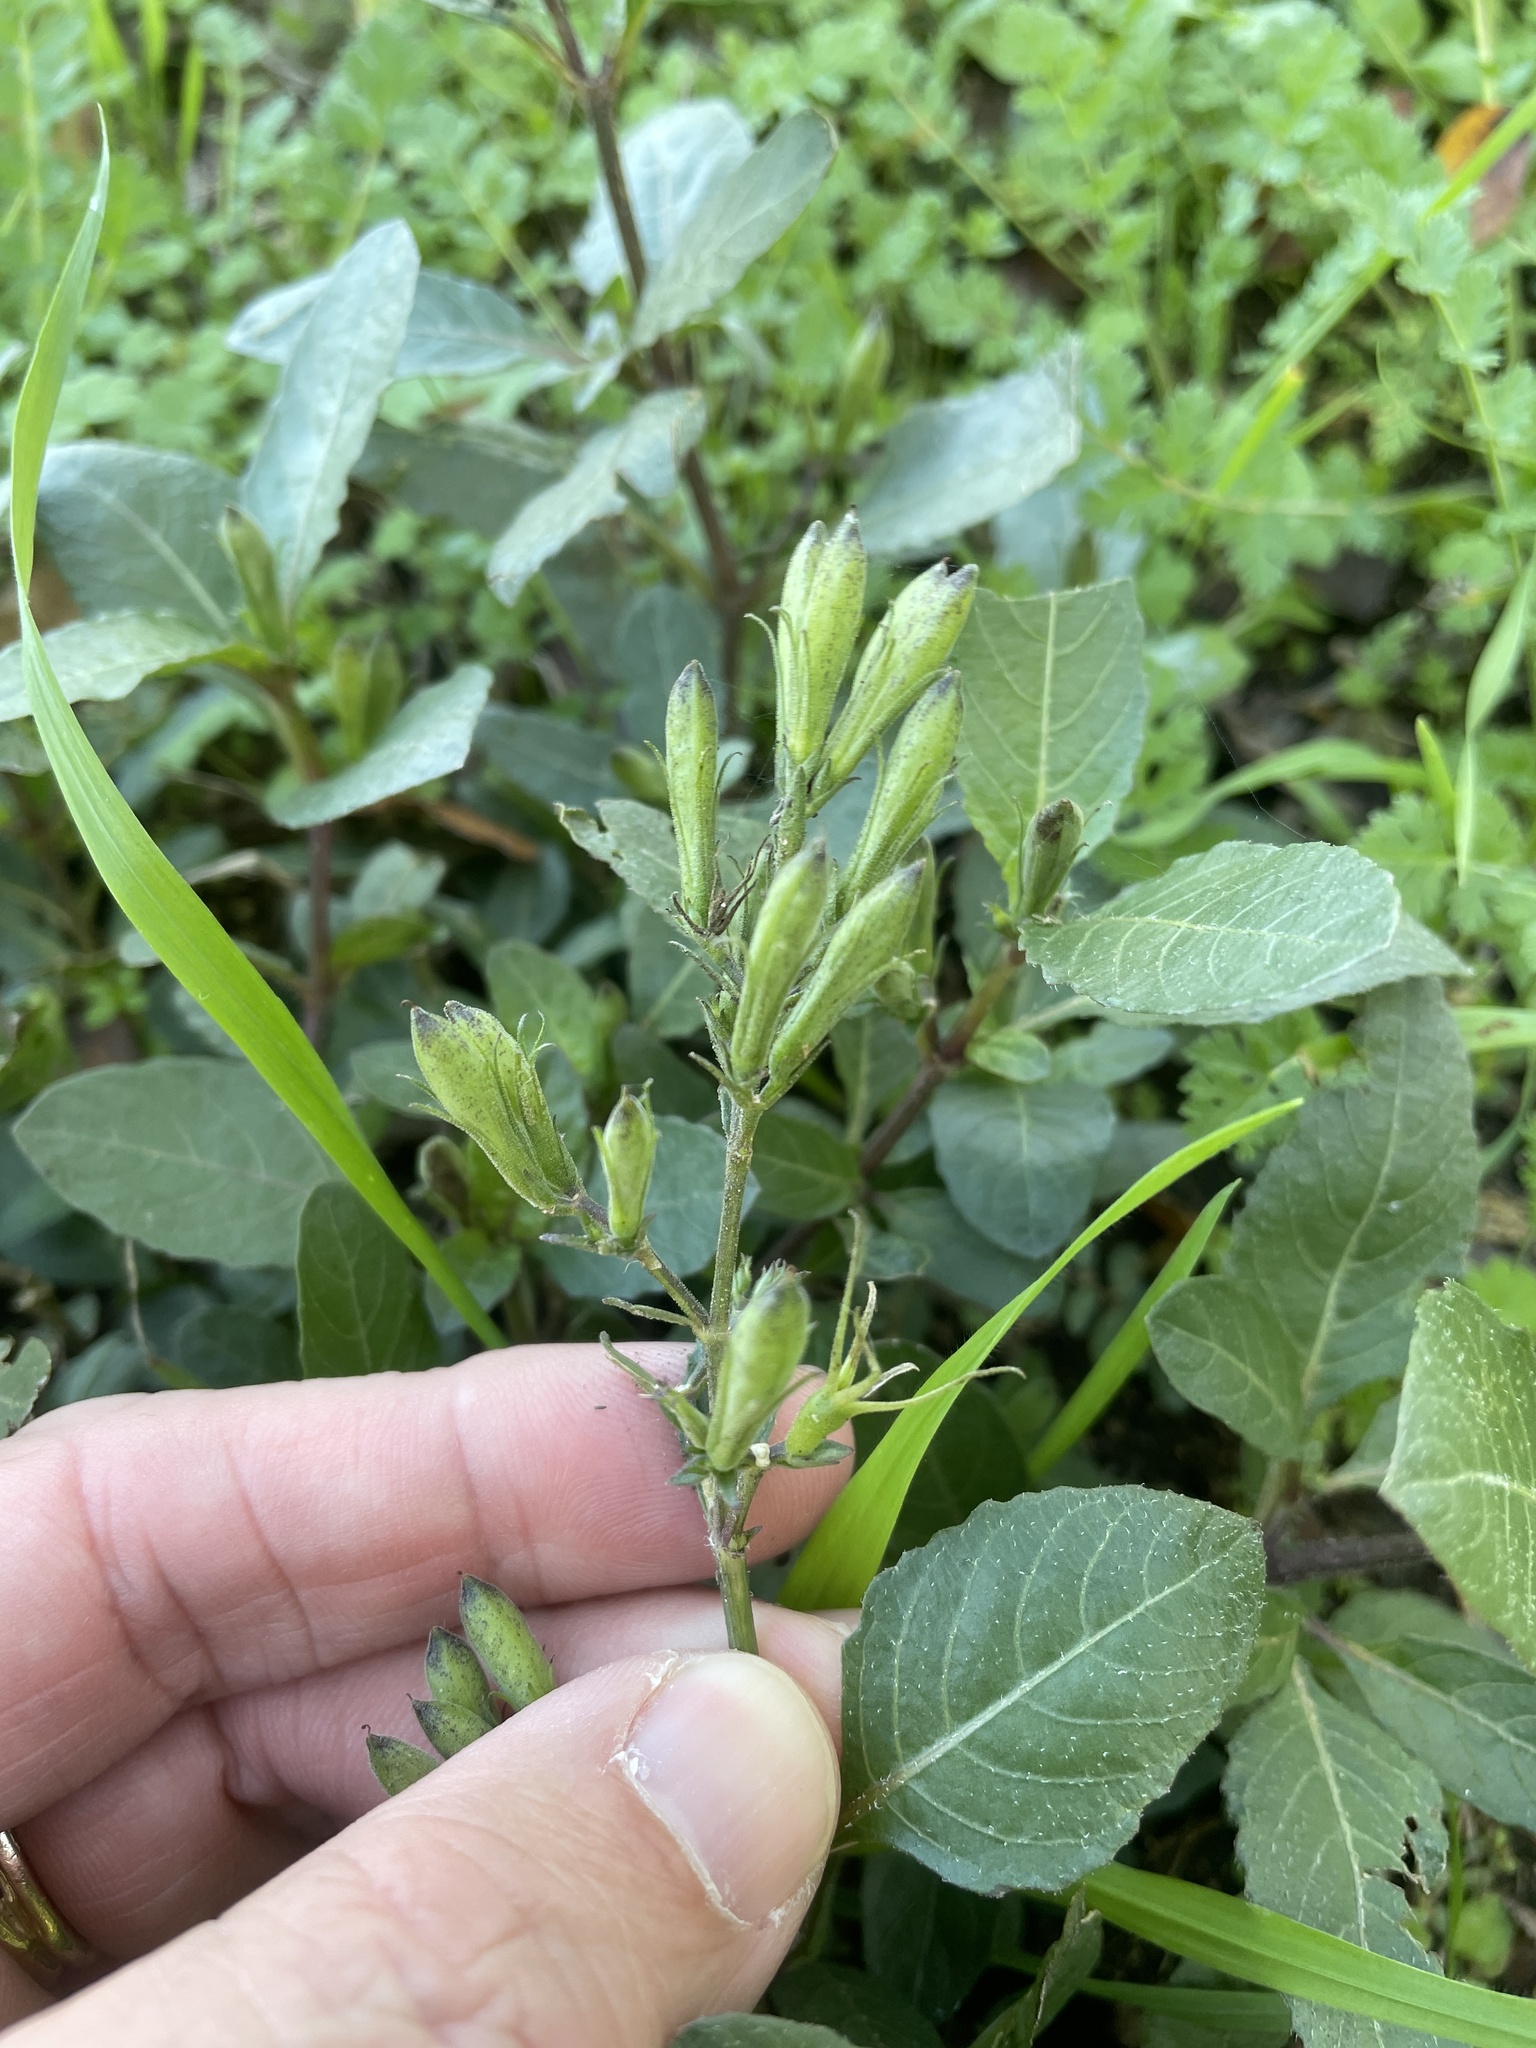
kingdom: Plantae
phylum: Tracheophyta
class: Magnoliopsida
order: Lamiales
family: Acanthaceae
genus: Ruellia
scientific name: Ruellia ciliatiflora
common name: Hairyflower wild petunia
